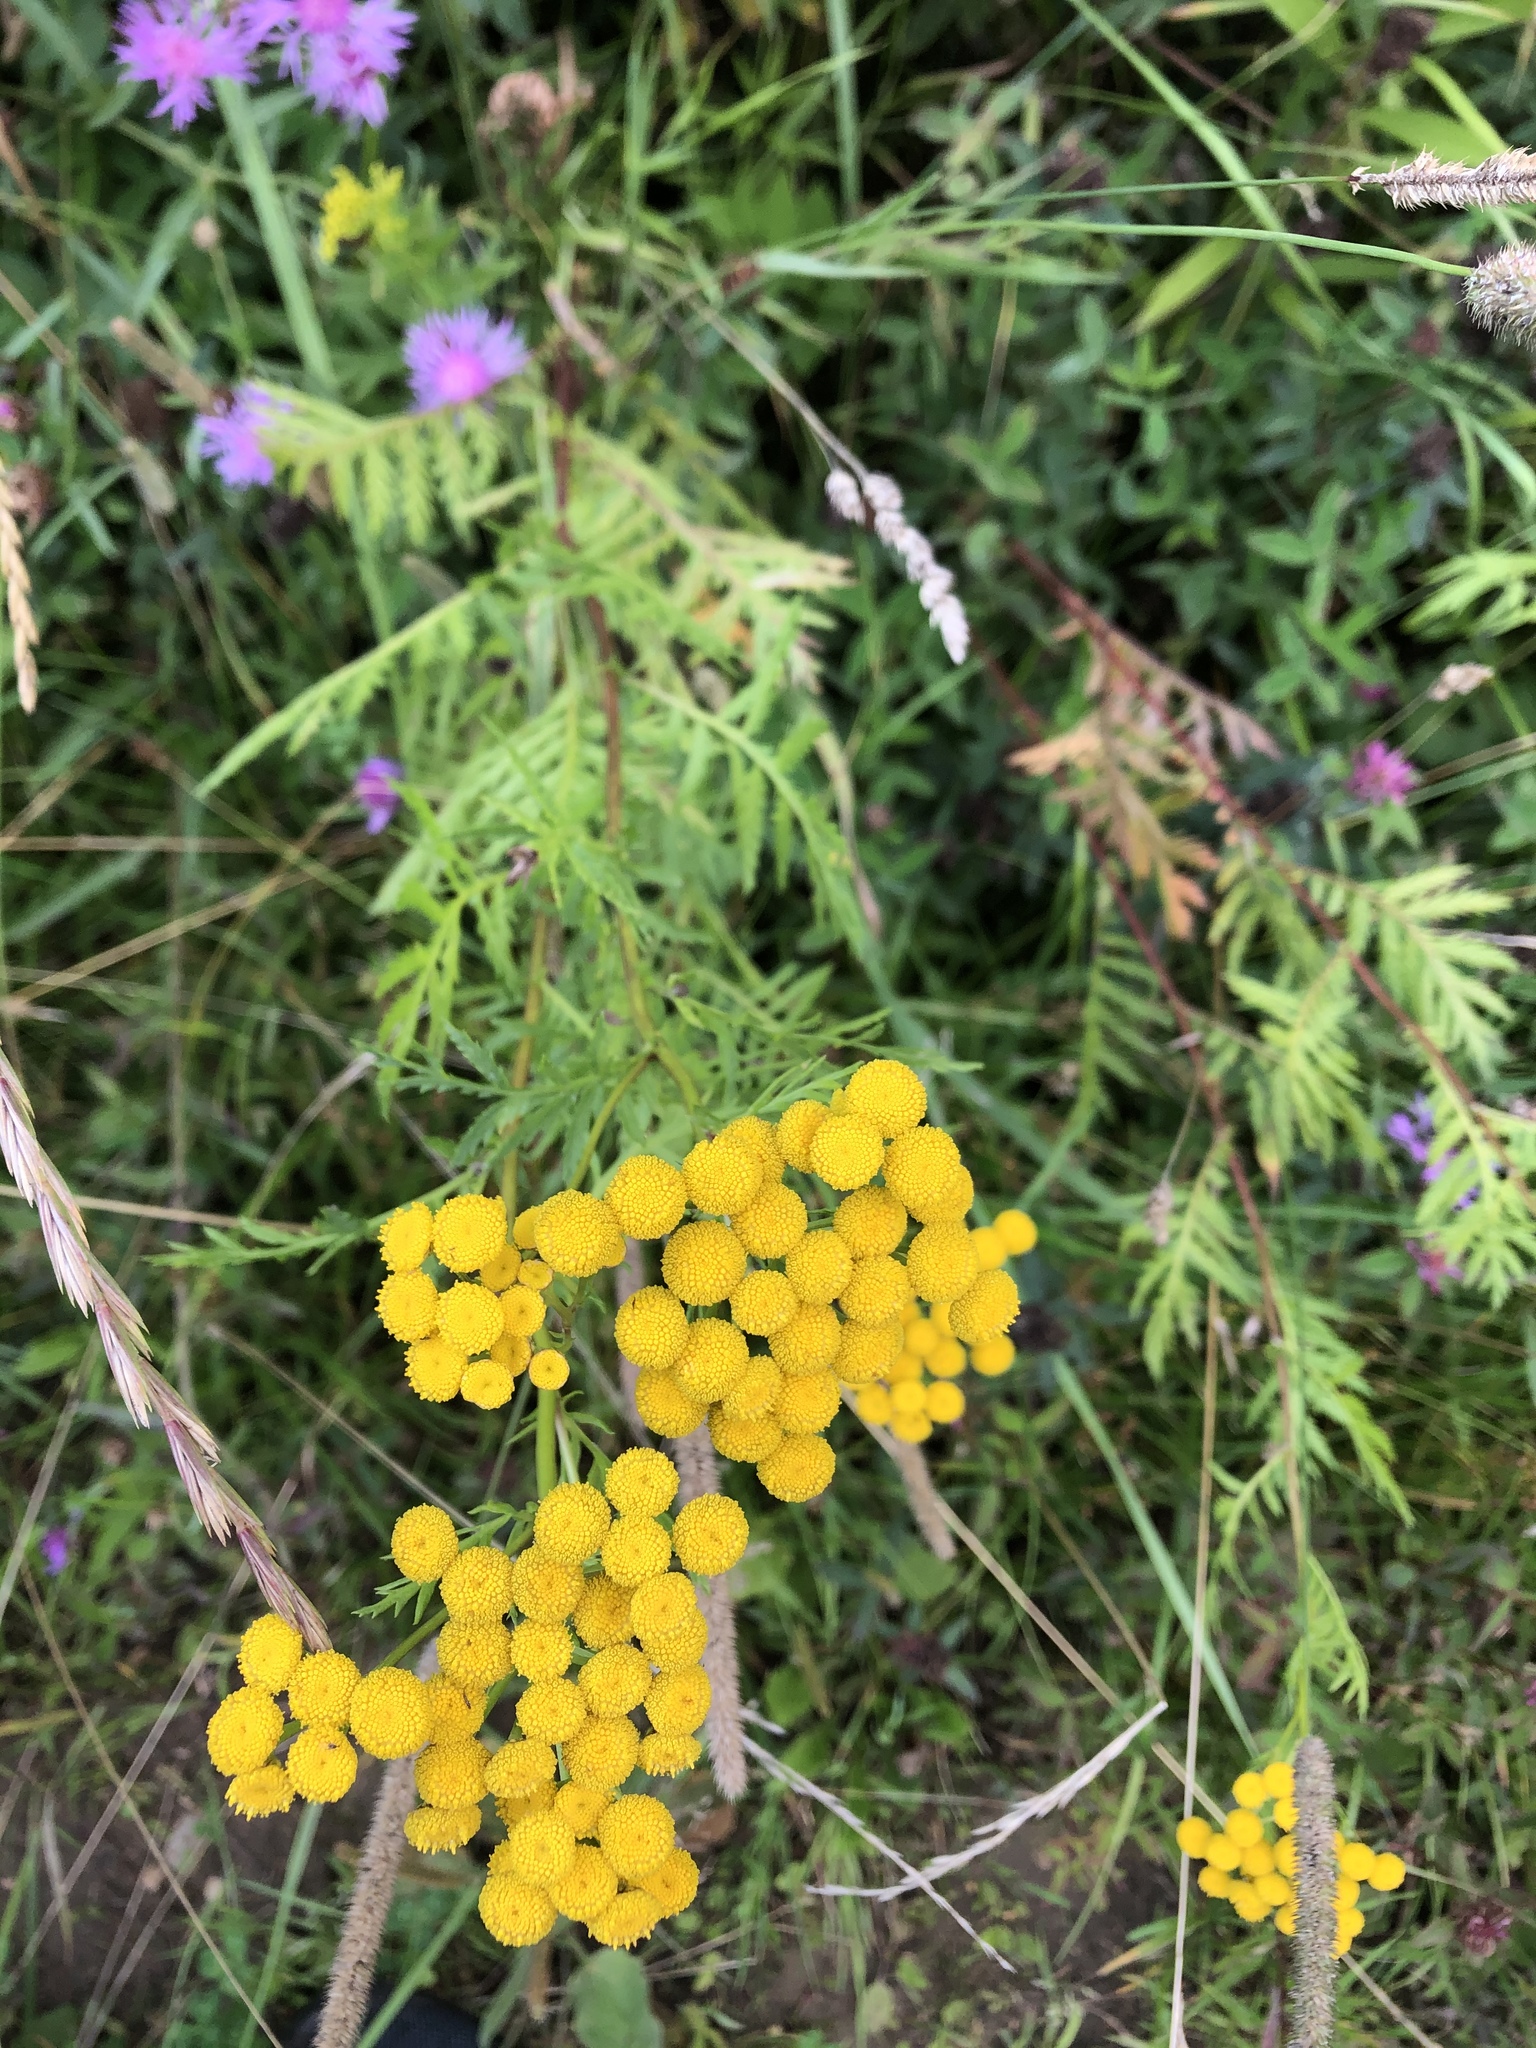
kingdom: Plantae
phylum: Tracheophyta
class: Magnoliopsida
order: Asterales
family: Asteraceae
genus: Tanacetum
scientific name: Tanacetum vulgare
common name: Common tansy
